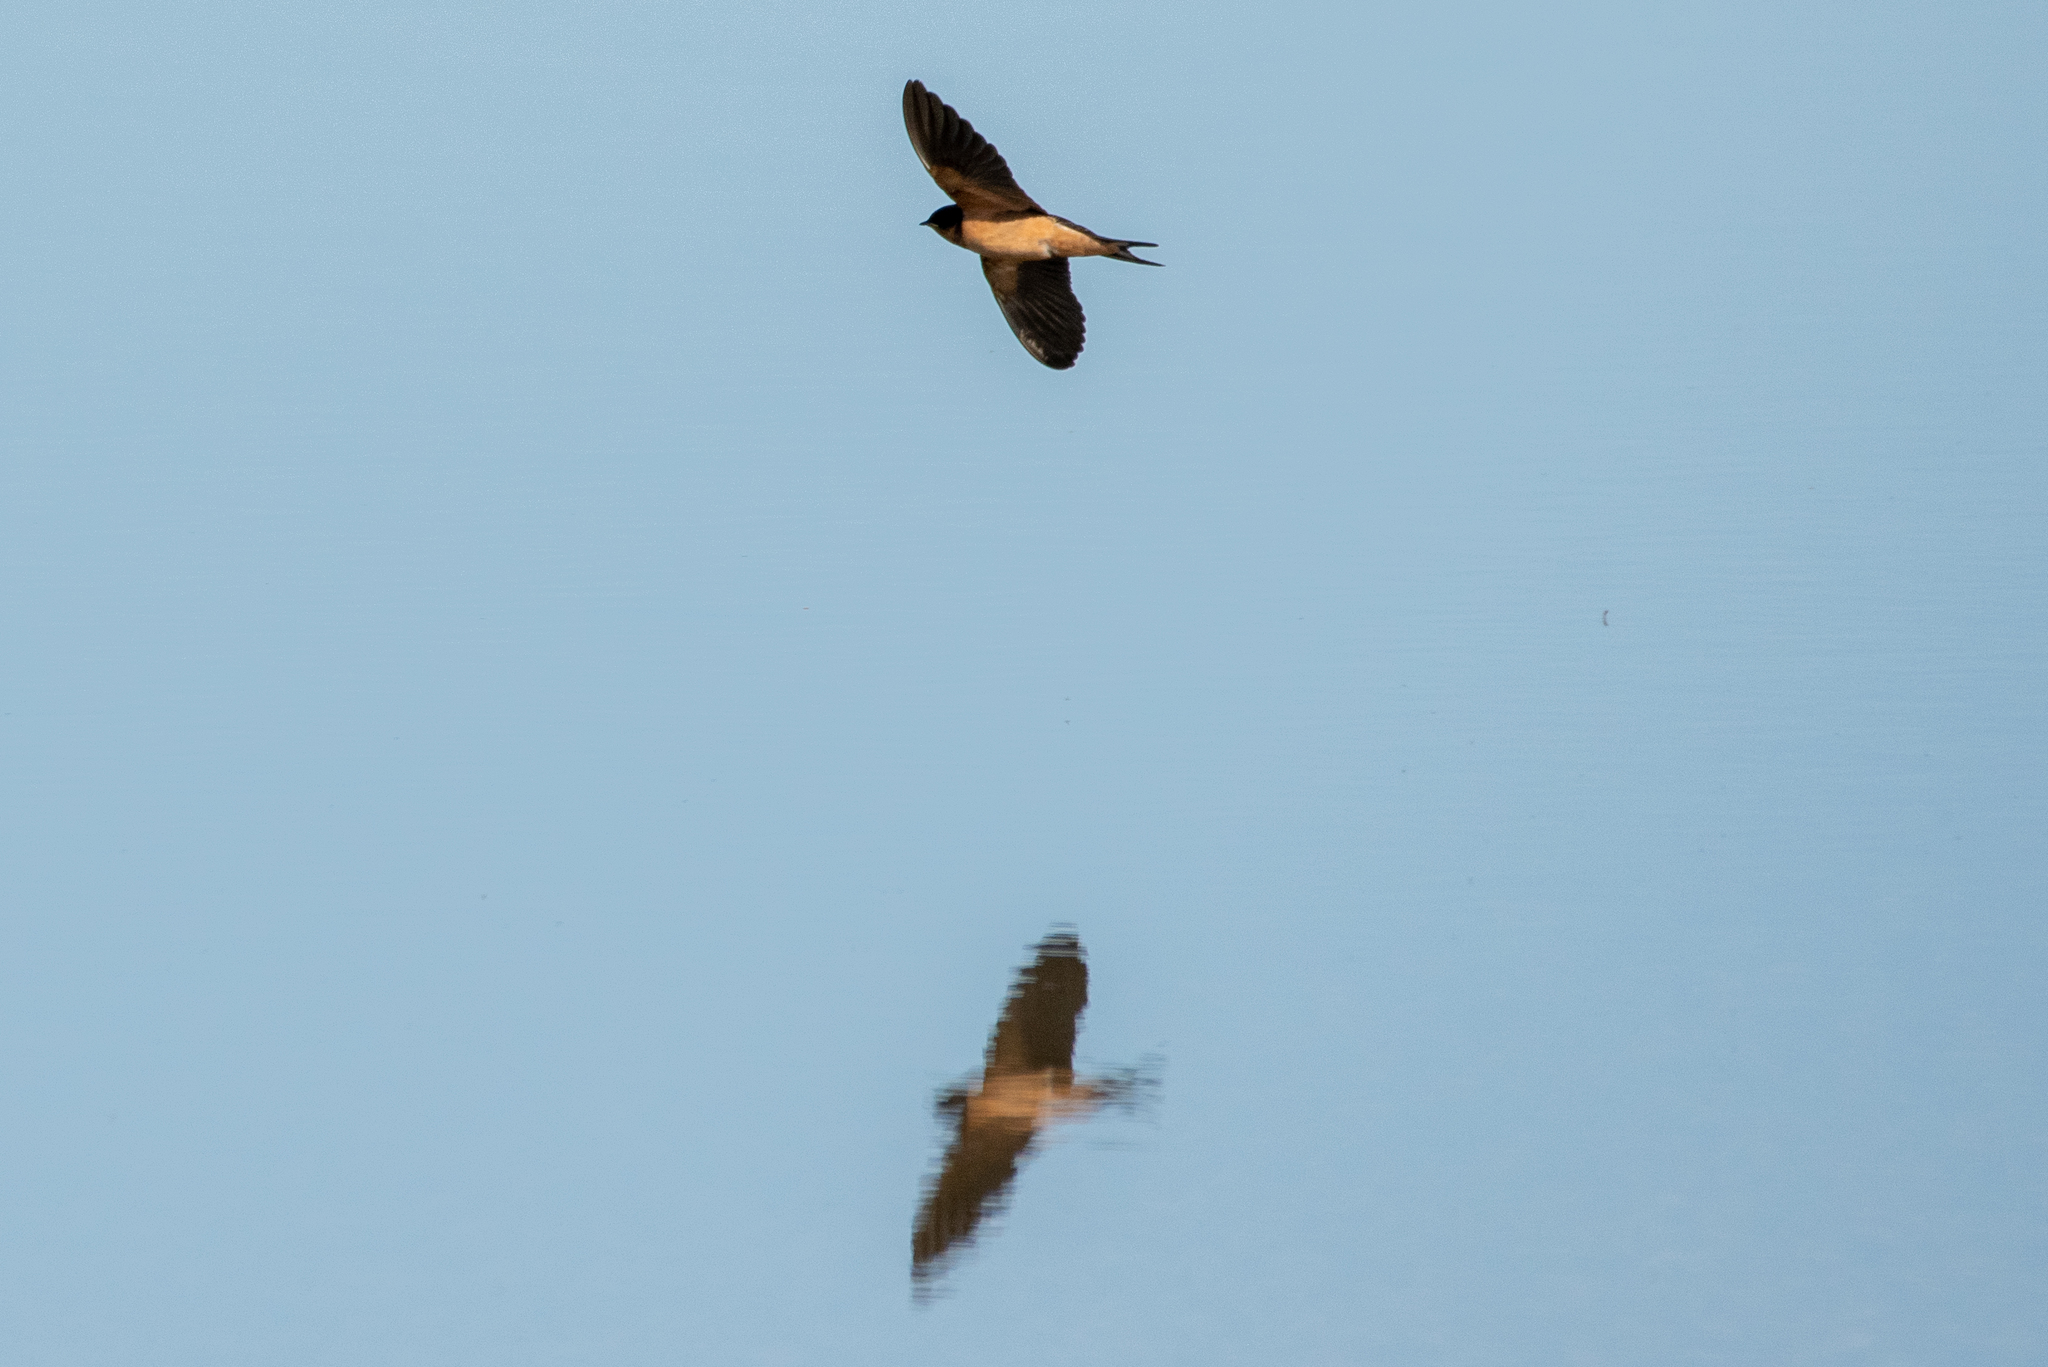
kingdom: Animalia
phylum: Chordata
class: Aves
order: Passeriformes
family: Hirundinidae
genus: Hirundo
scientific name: Hirundo rustica
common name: Barn swallow
